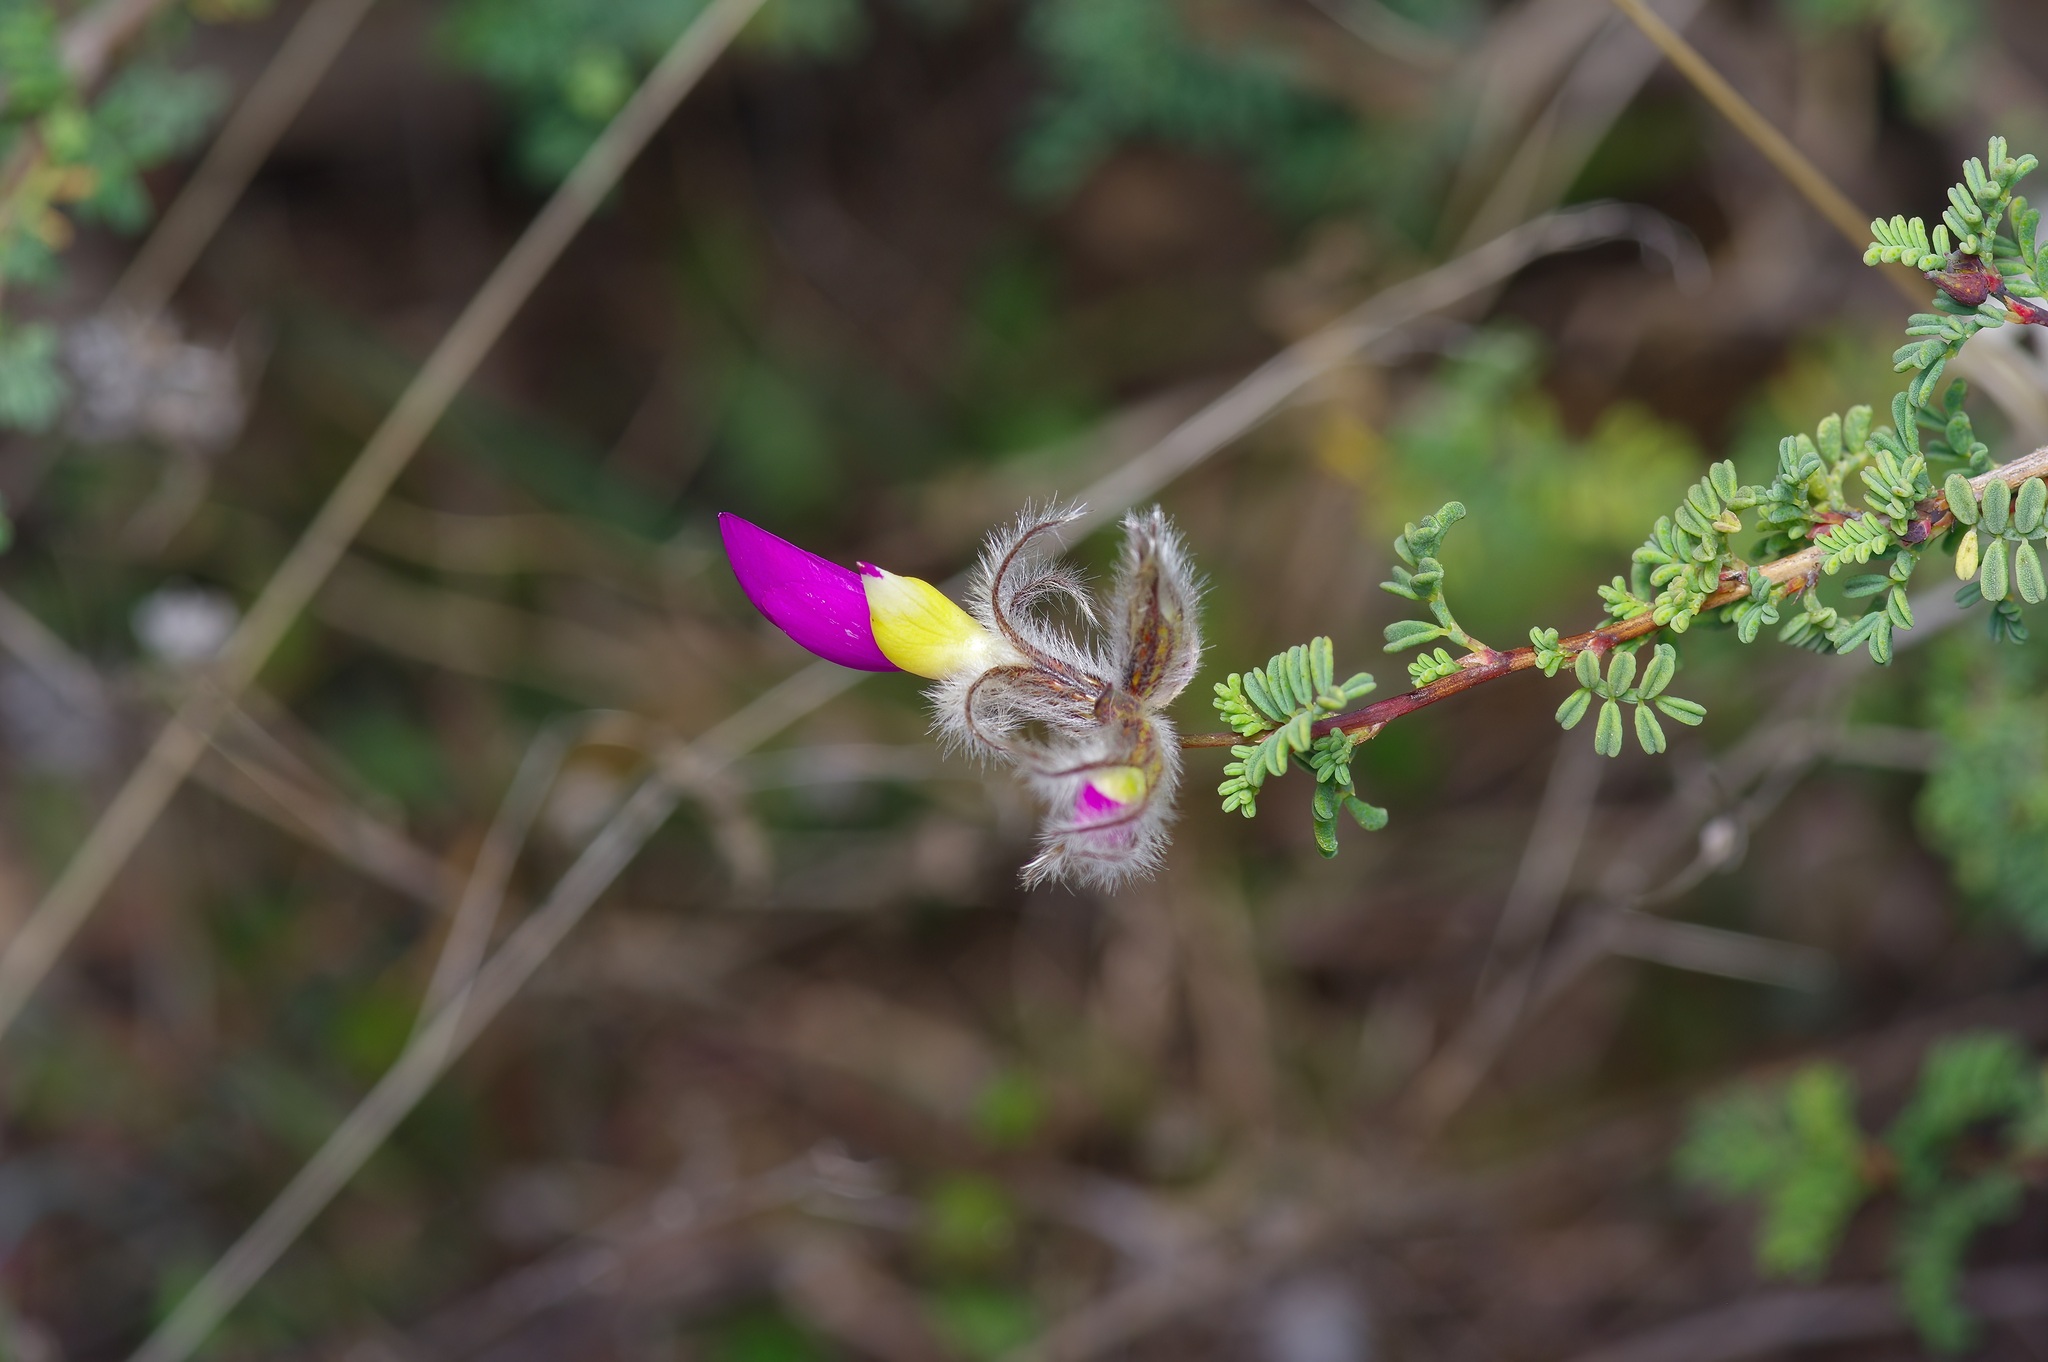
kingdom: Plantae
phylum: Tracheophyta
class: Magnoliopsida
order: Fabales
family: Fabaceae
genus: Dalea
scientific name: Dalea formosa
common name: Feather-plume dalea
